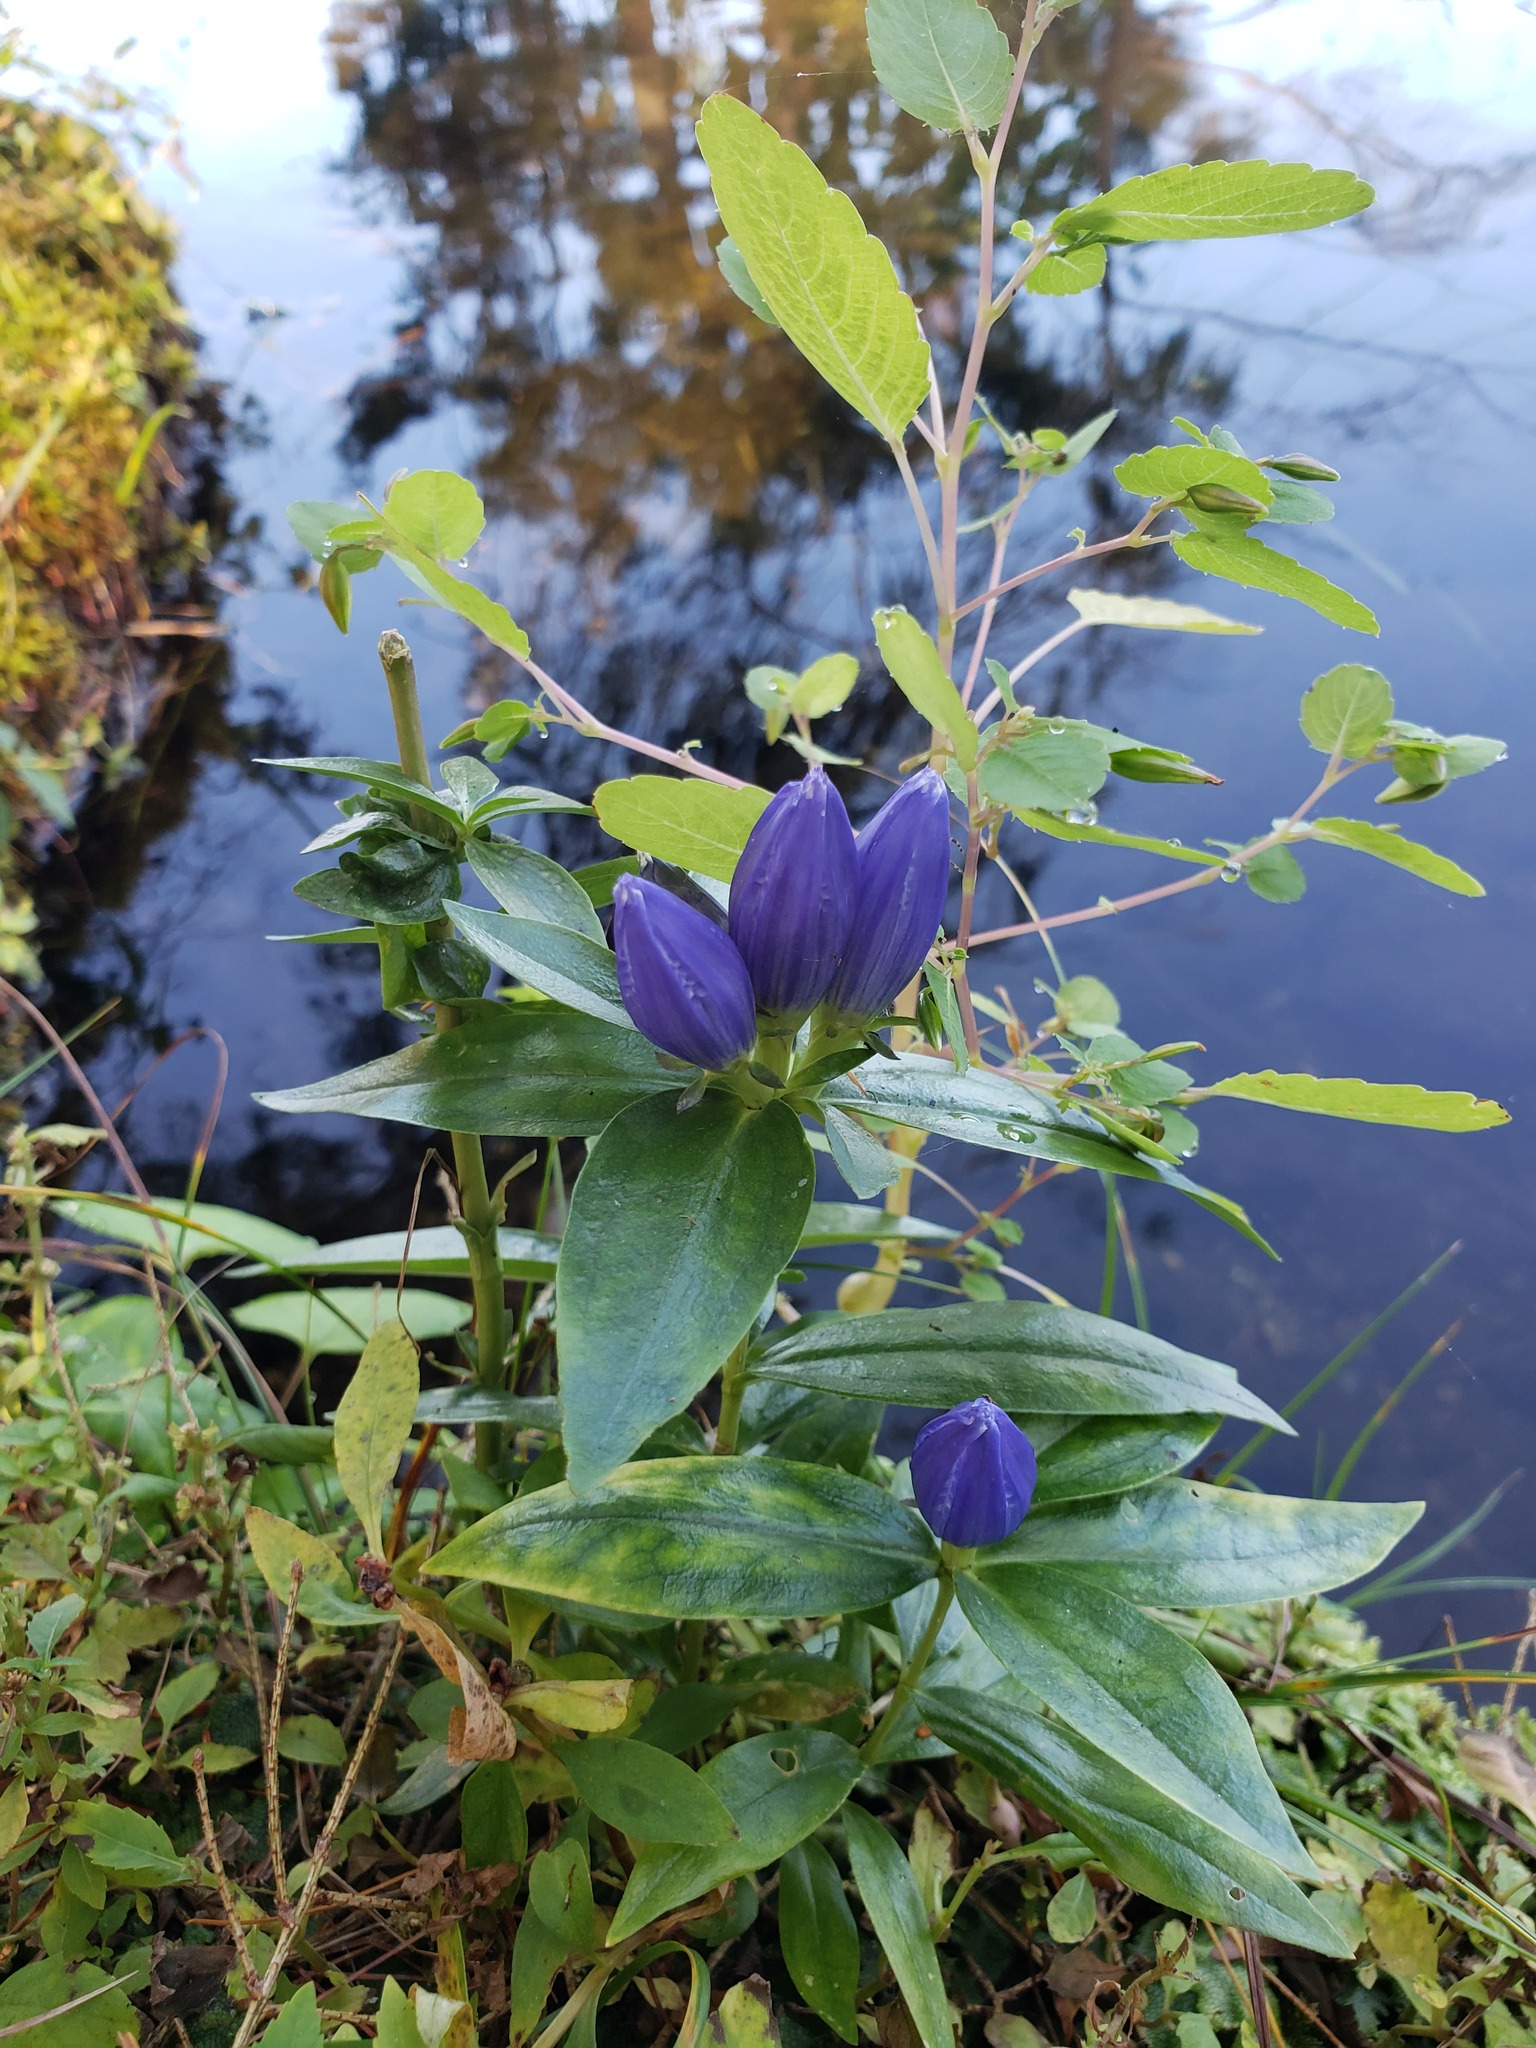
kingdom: Plantae
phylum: Tracheophyta
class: Magnoliopsida
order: Gentianales
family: Gentianaceae
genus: Gentiana
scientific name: Gentiana andrewsii
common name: Bottle gentian
